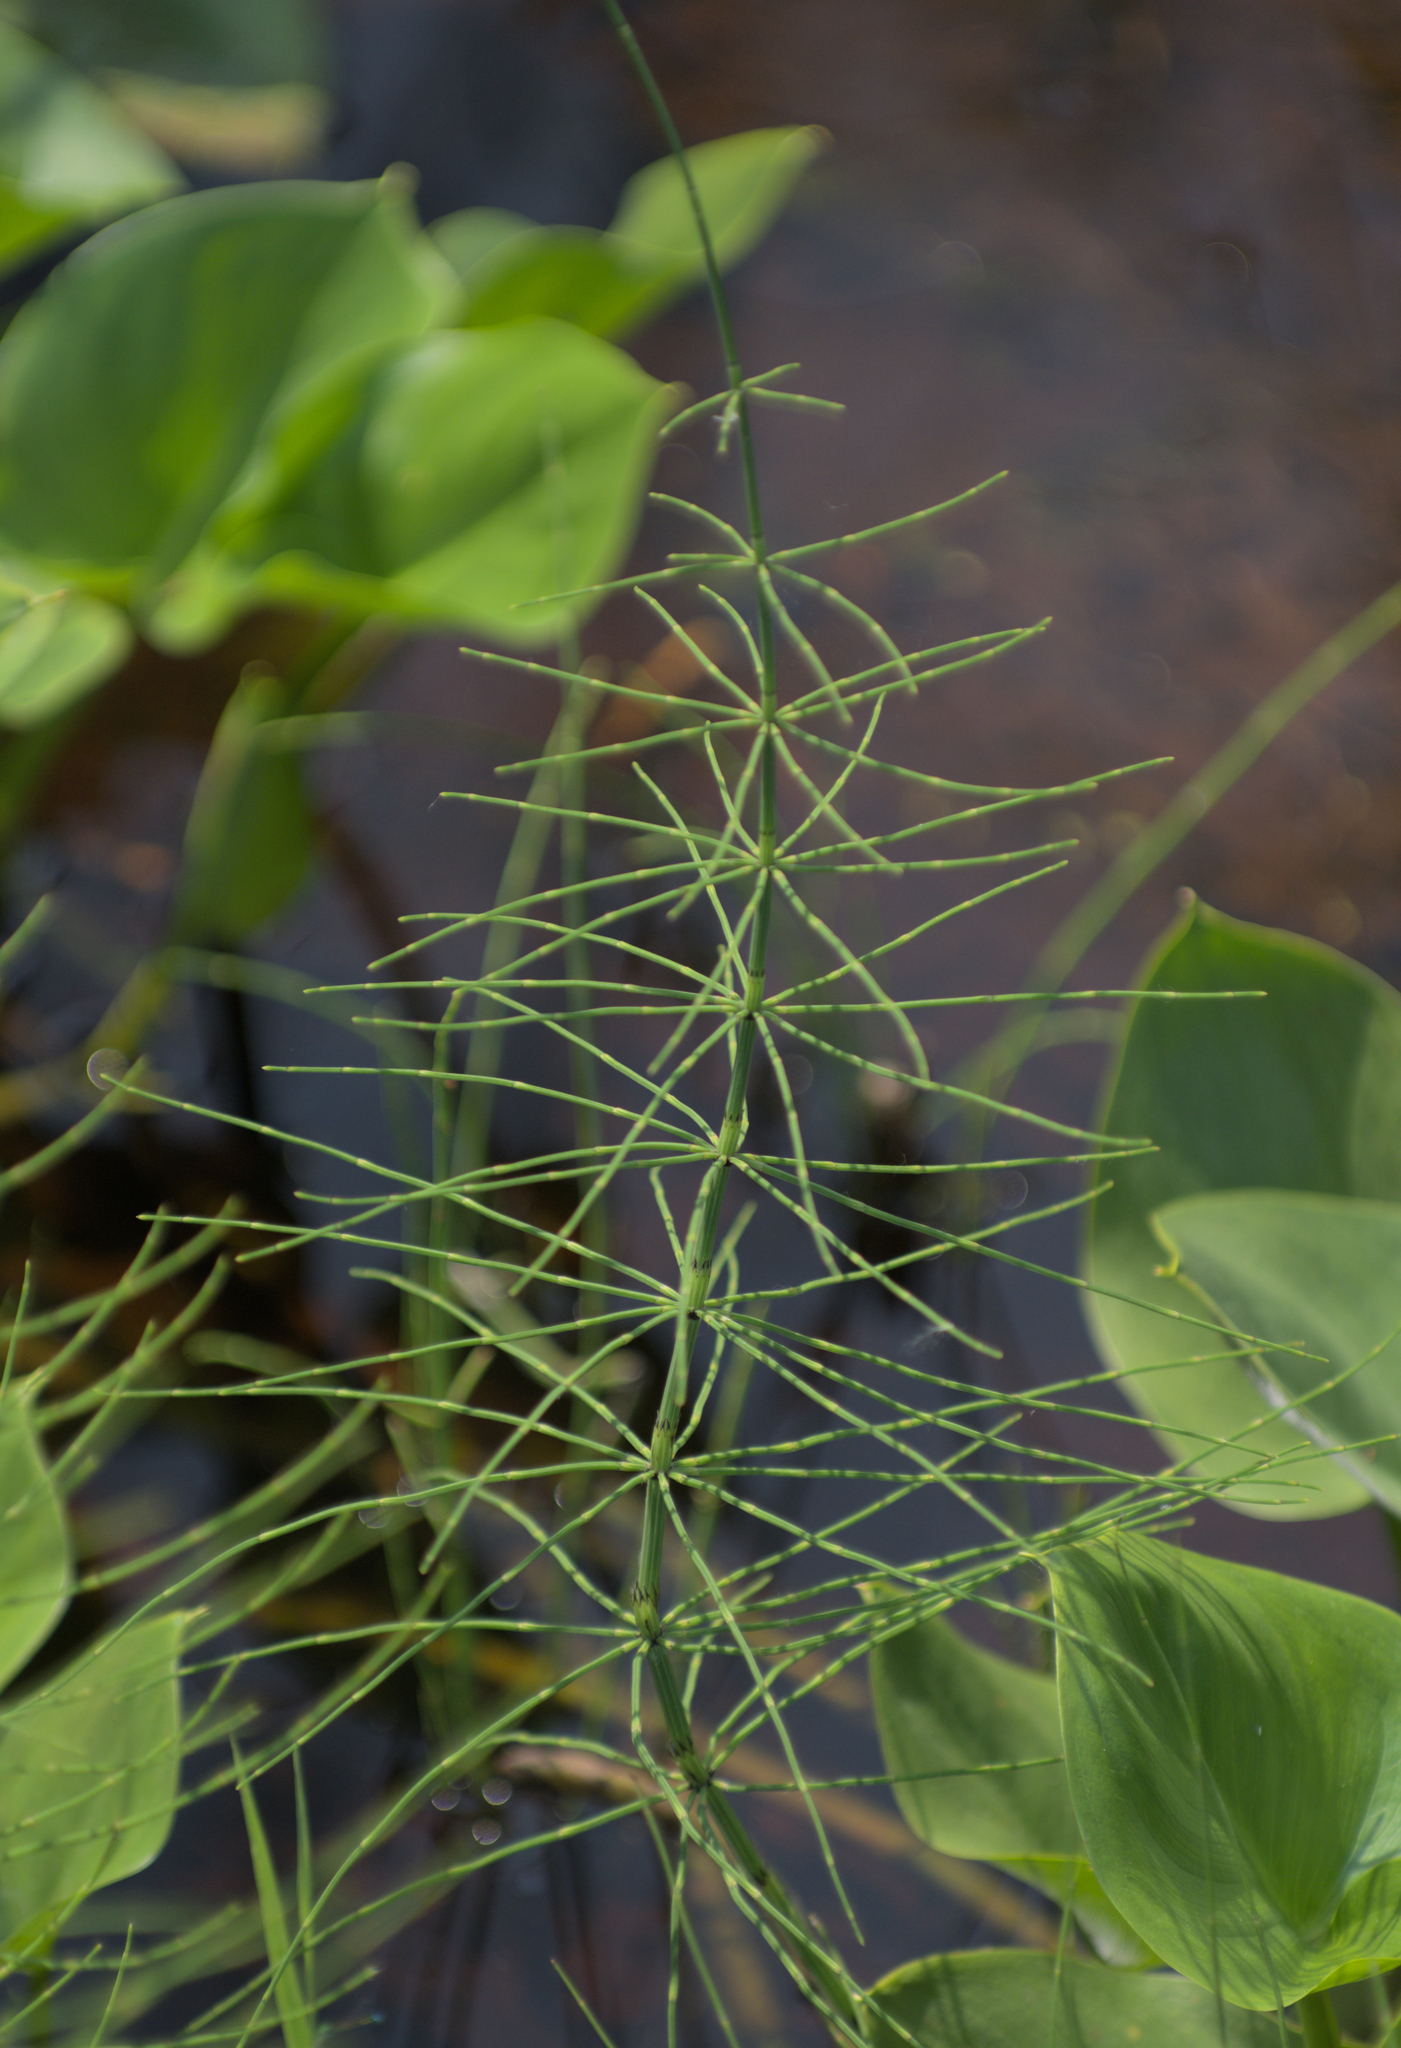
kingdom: Plantae
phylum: Tracheophyta
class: Polypodiopsida
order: Equisetales
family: Equisetaceae
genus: Equisetum
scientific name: Equisetum palustre
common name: Marsh horsetail
